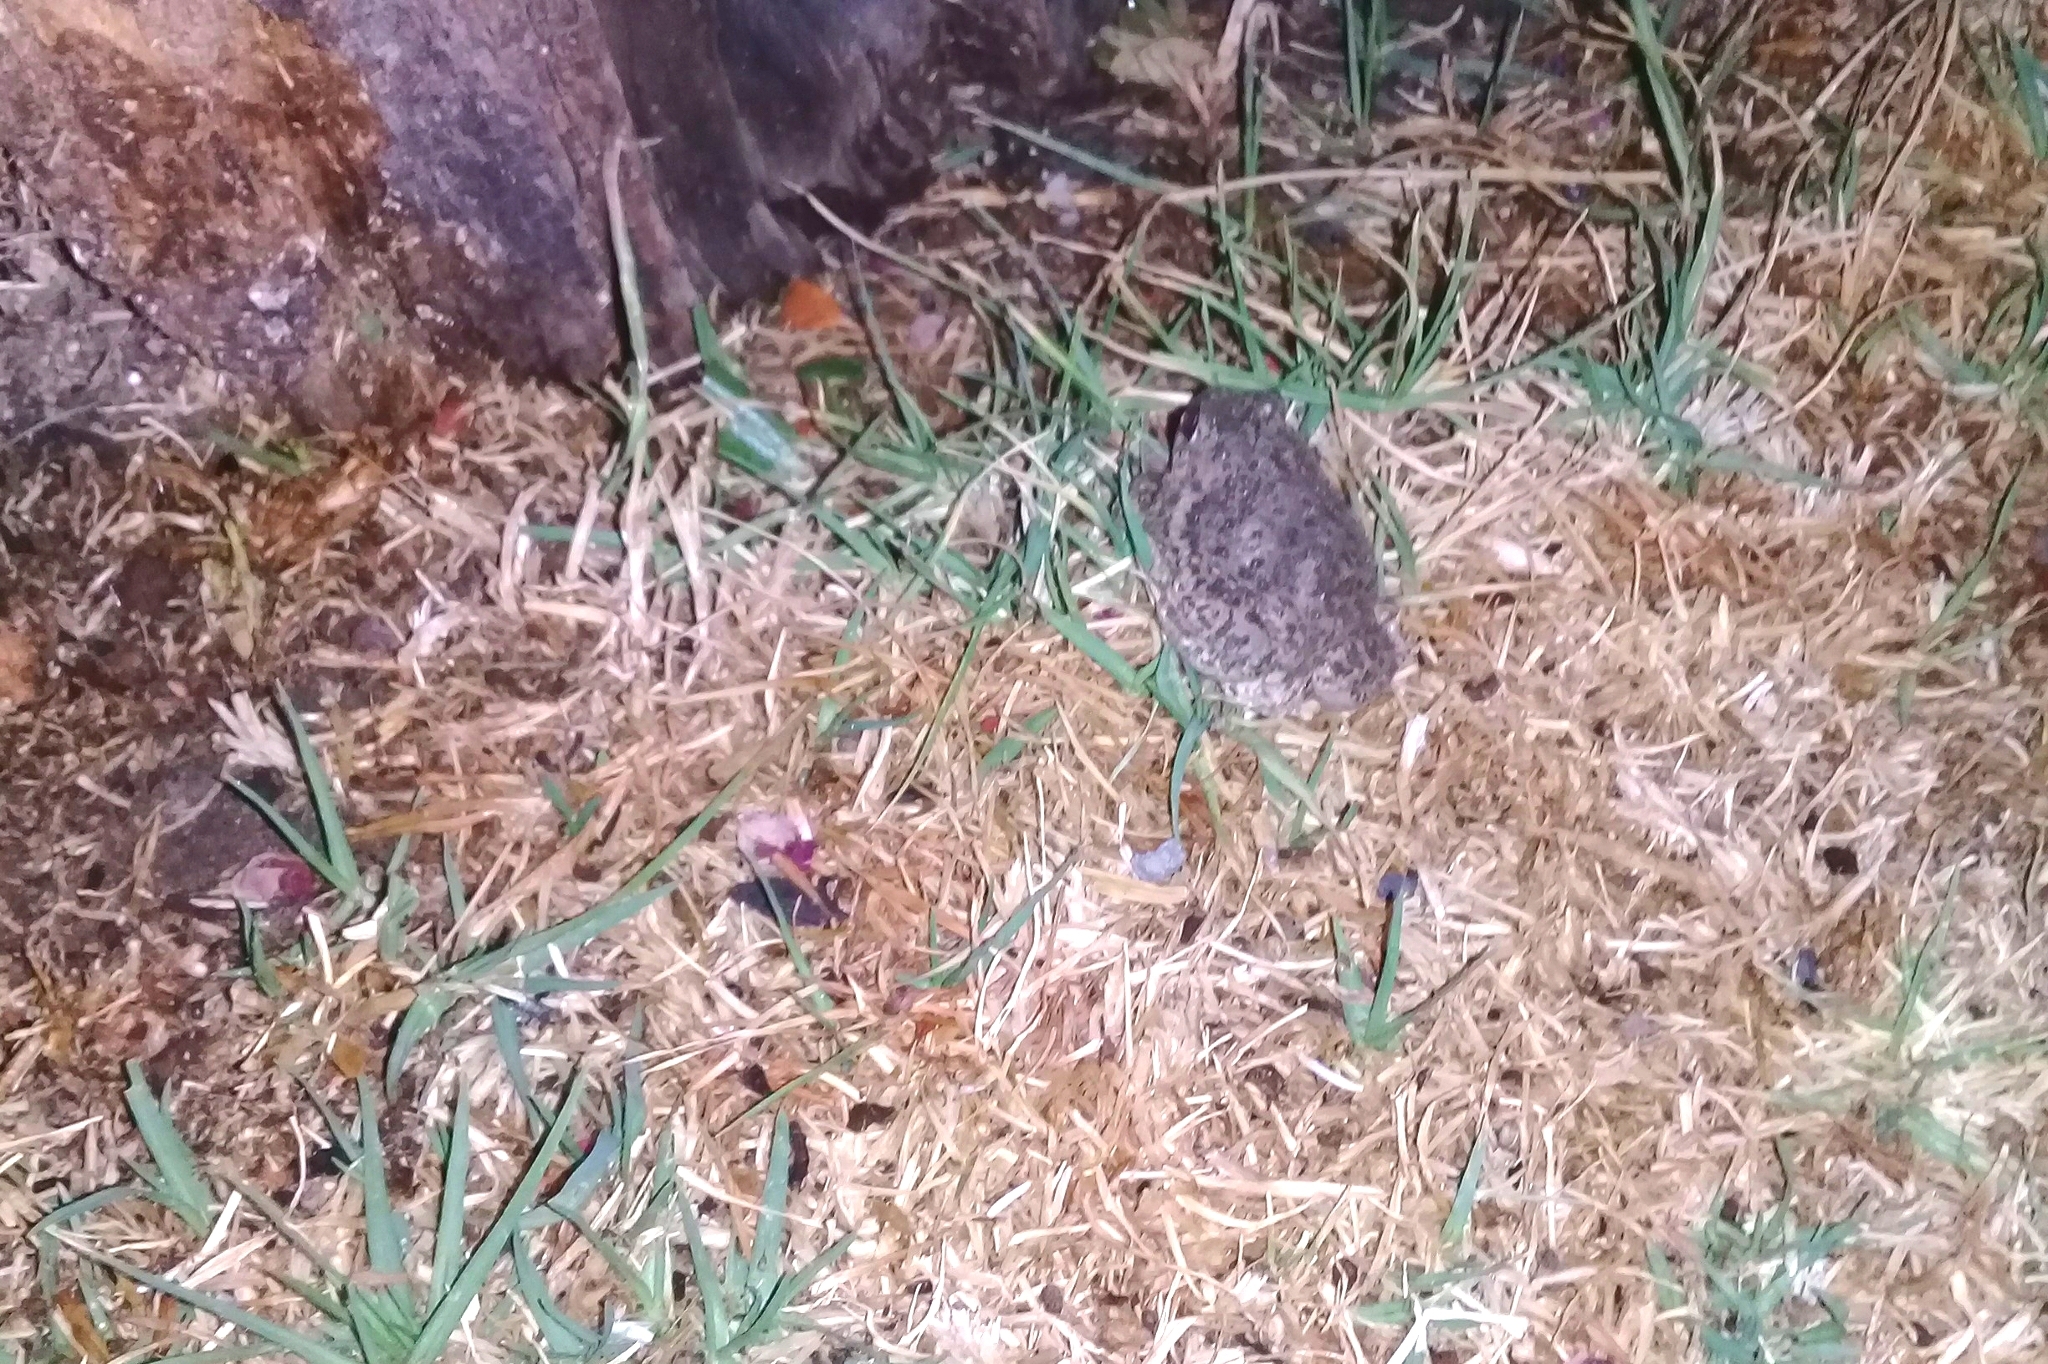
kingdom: Animalia
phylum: Chordata
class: Amphibia
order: Anura
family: Scaphiopodidae
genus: Spea
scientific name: Spea multiplicata
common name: Mexican spadefoot
